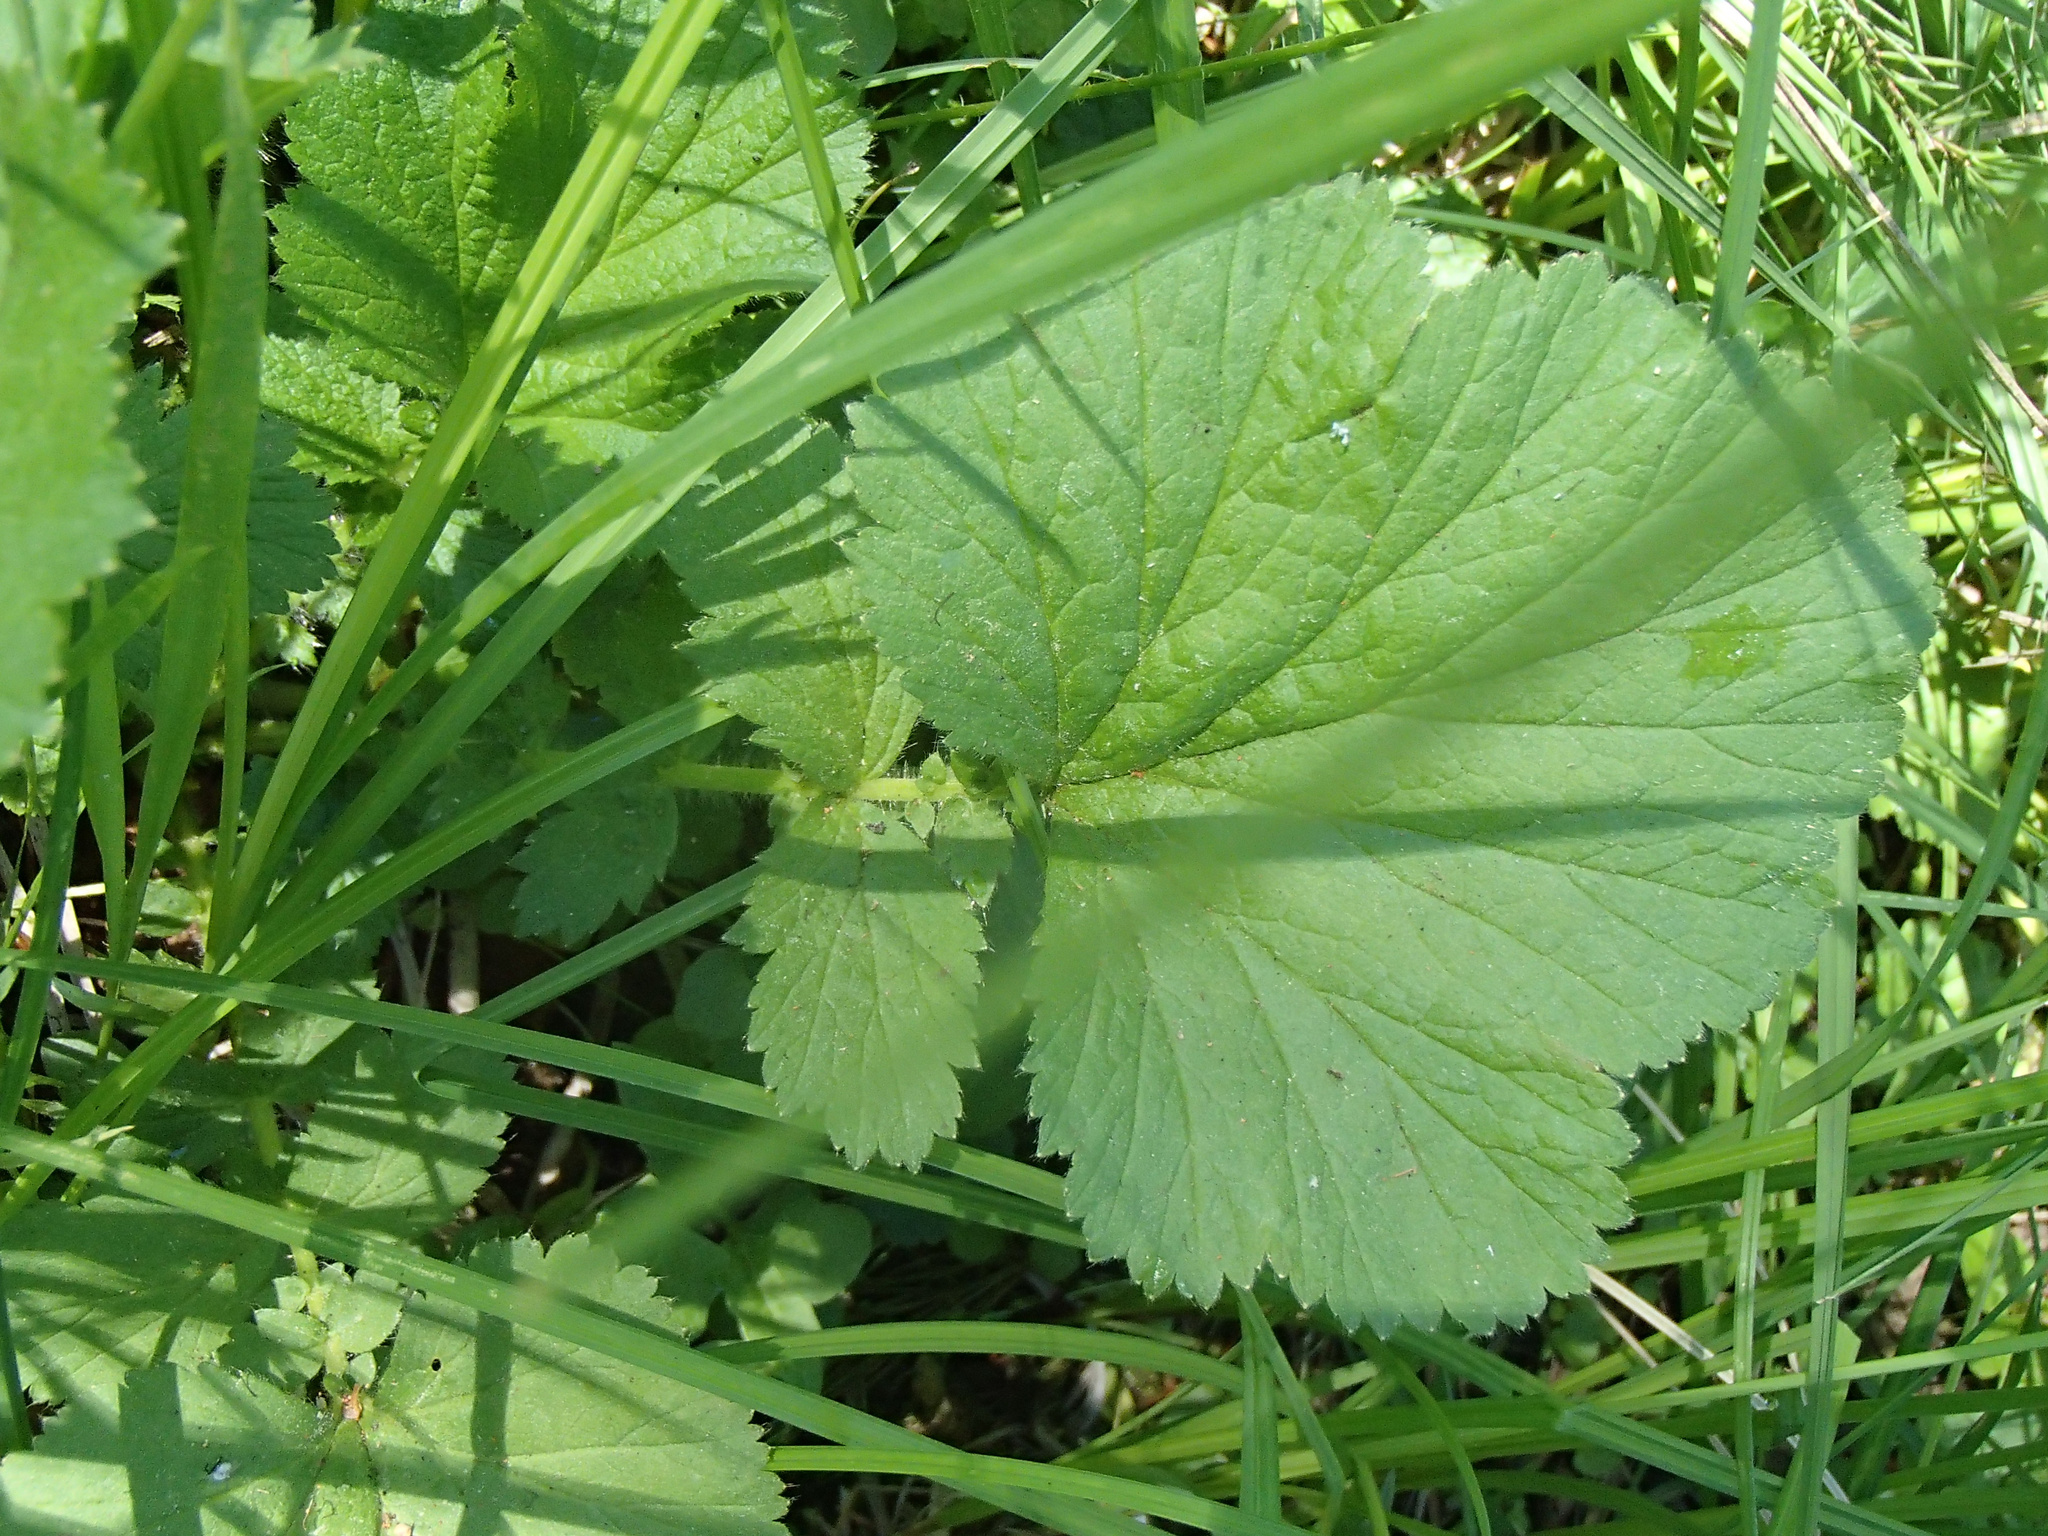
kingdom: Plantae
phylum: Tracheophyta
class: Magnoliopsida
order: Rosales
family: Rosaceae
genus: Geum
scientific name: Geum macrophyllum
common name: Large-leaved avens
